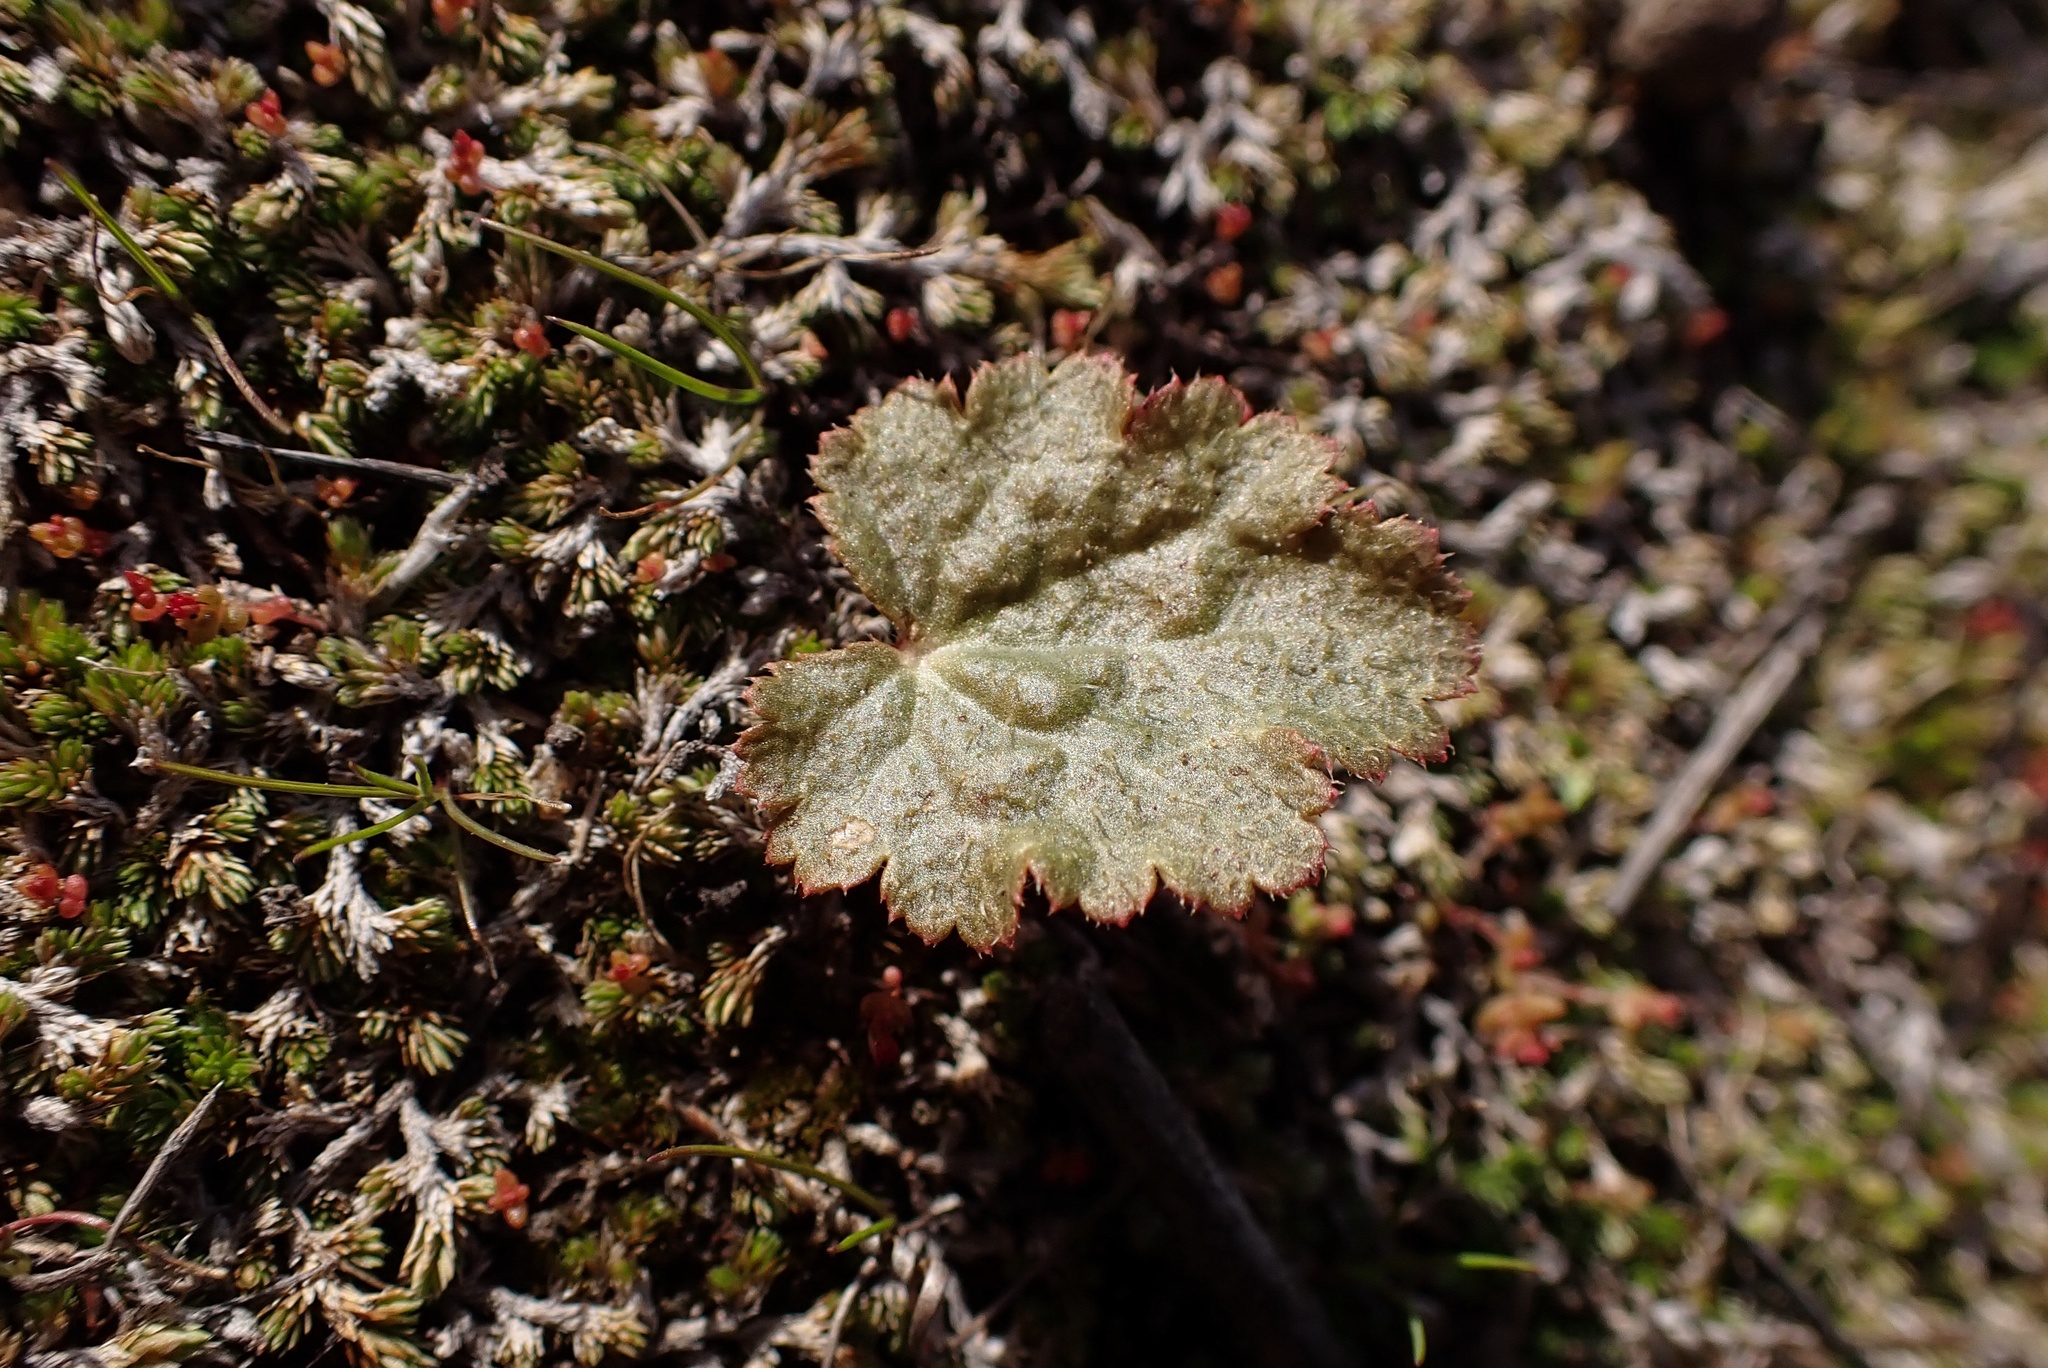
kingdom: Plantae
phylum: Tracheophyta
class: Magnoliopsida
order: Saxifragales
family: Saxifragaceae
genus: Jepsonia
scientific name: Jepsonia parryi
